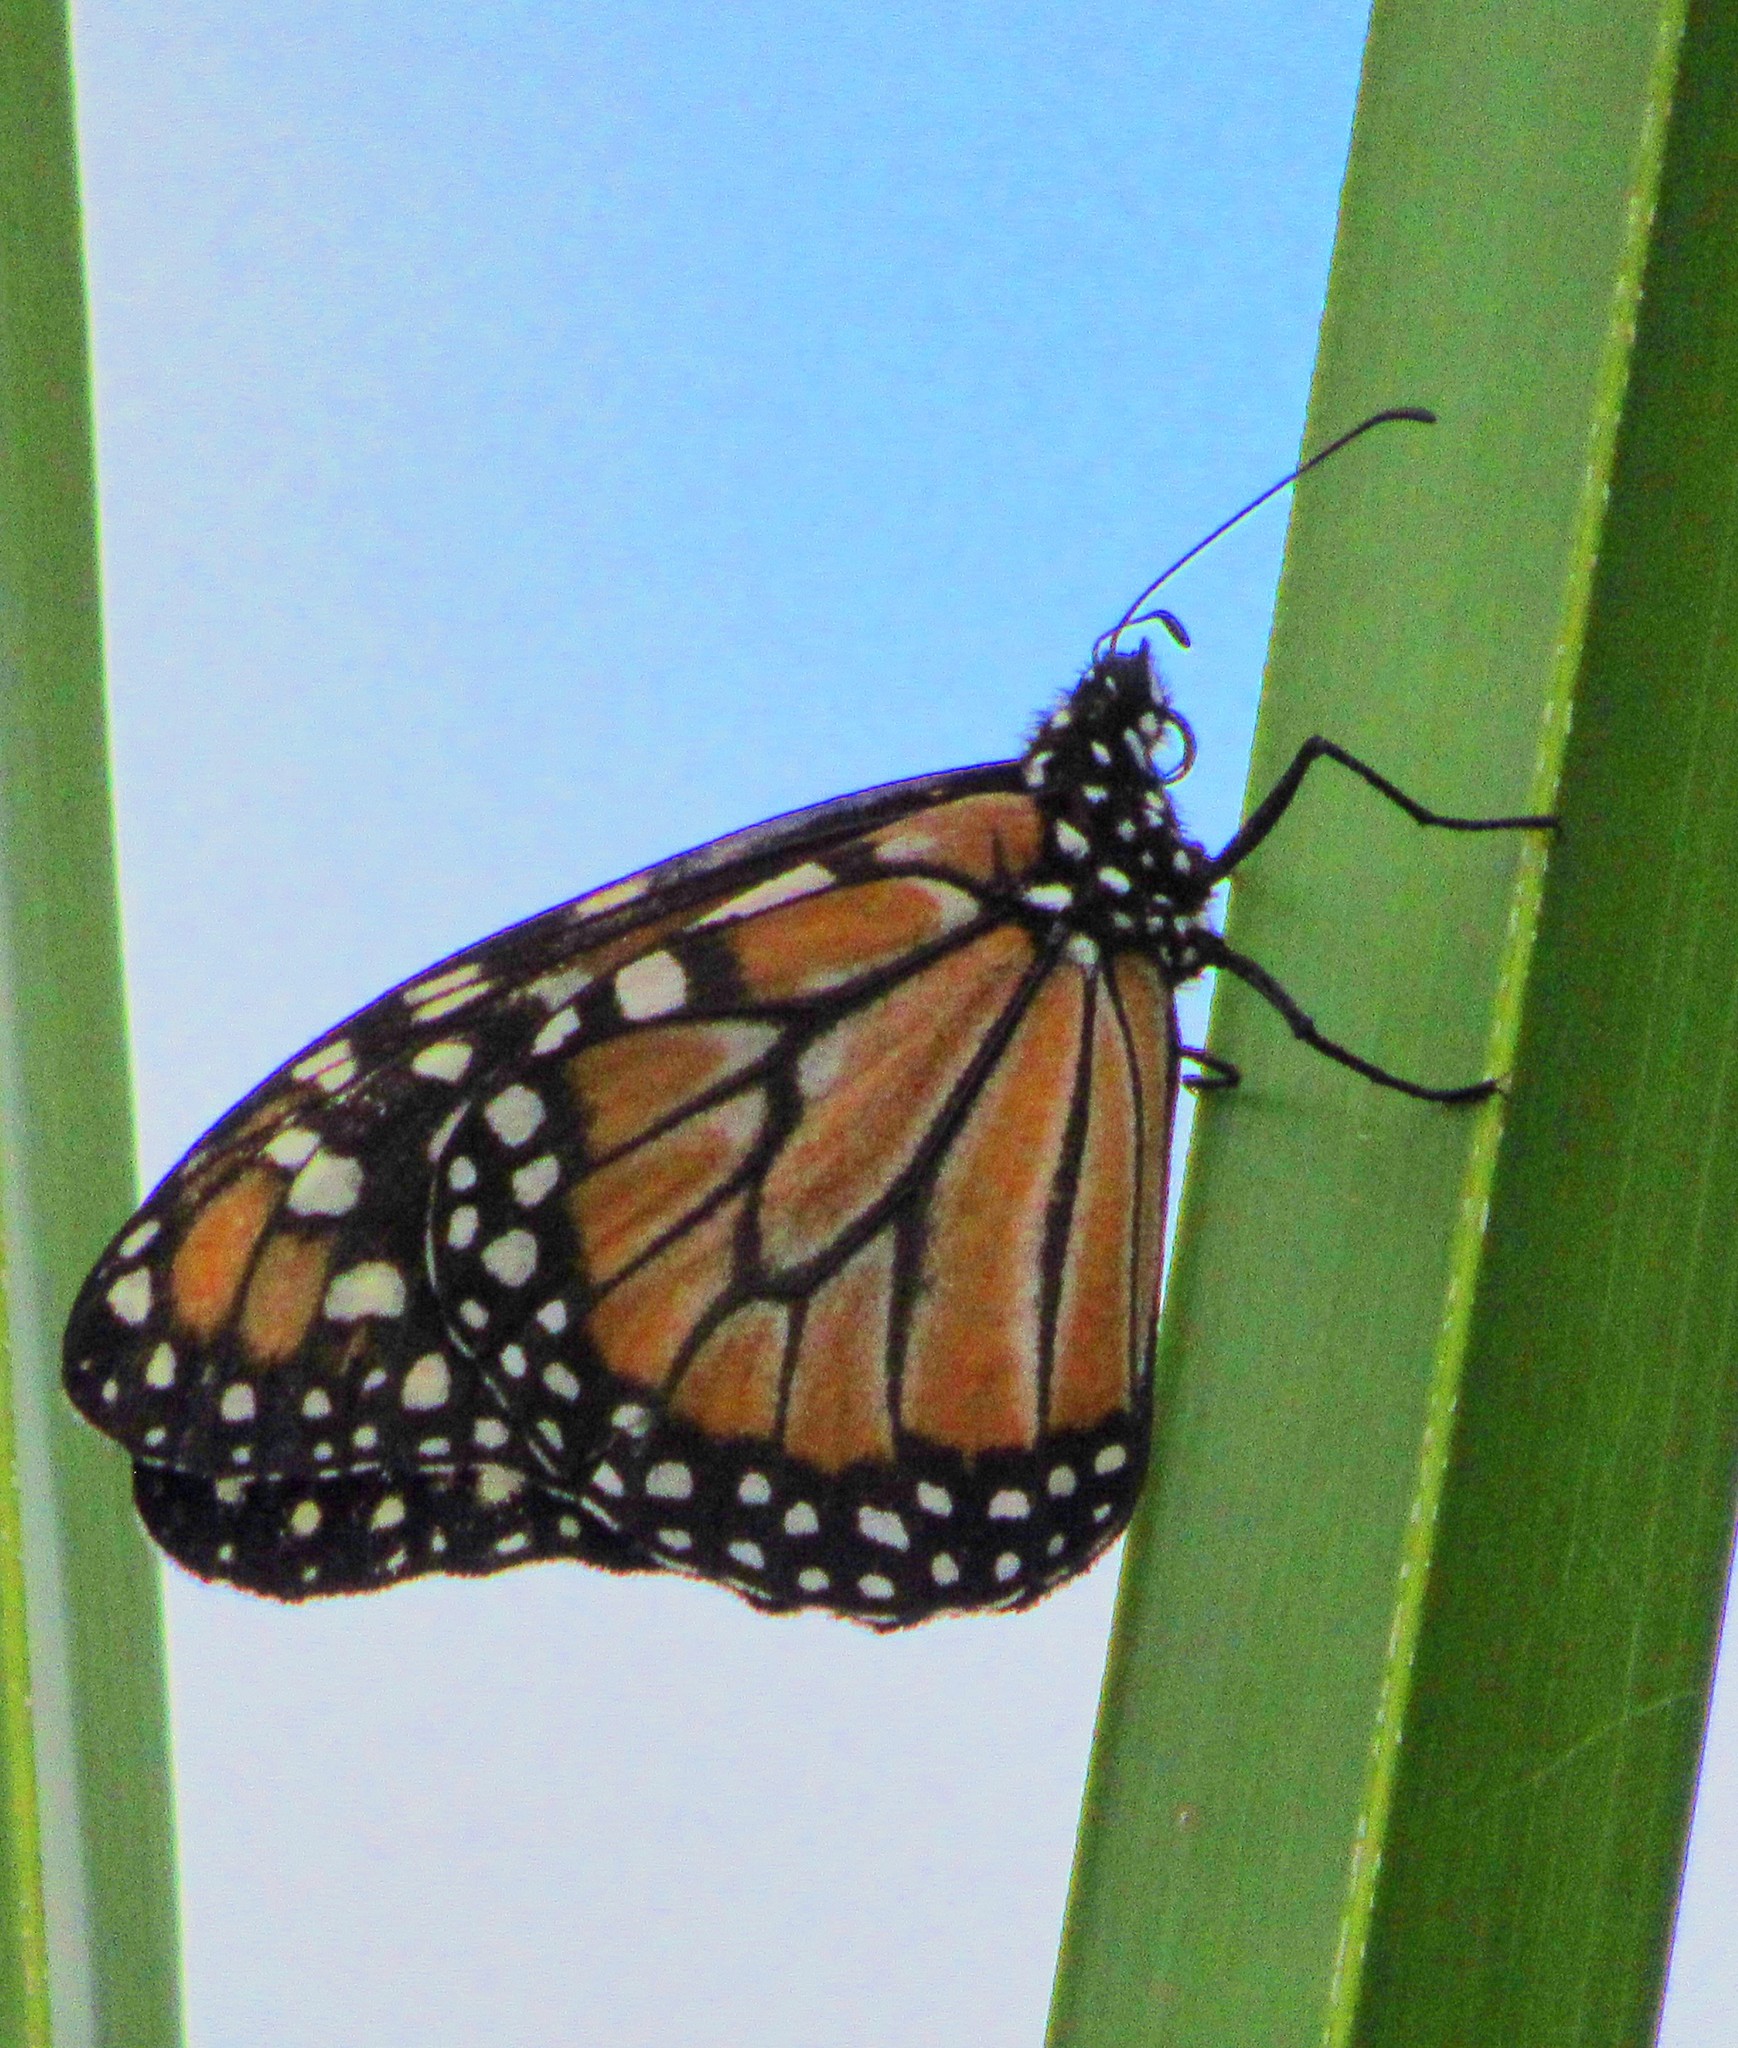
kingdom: Animalia
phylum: Arthropoda
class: Insecta
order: Lepidoptera
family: Nymphalidae
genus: Danaus
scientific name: Danaus erippus
